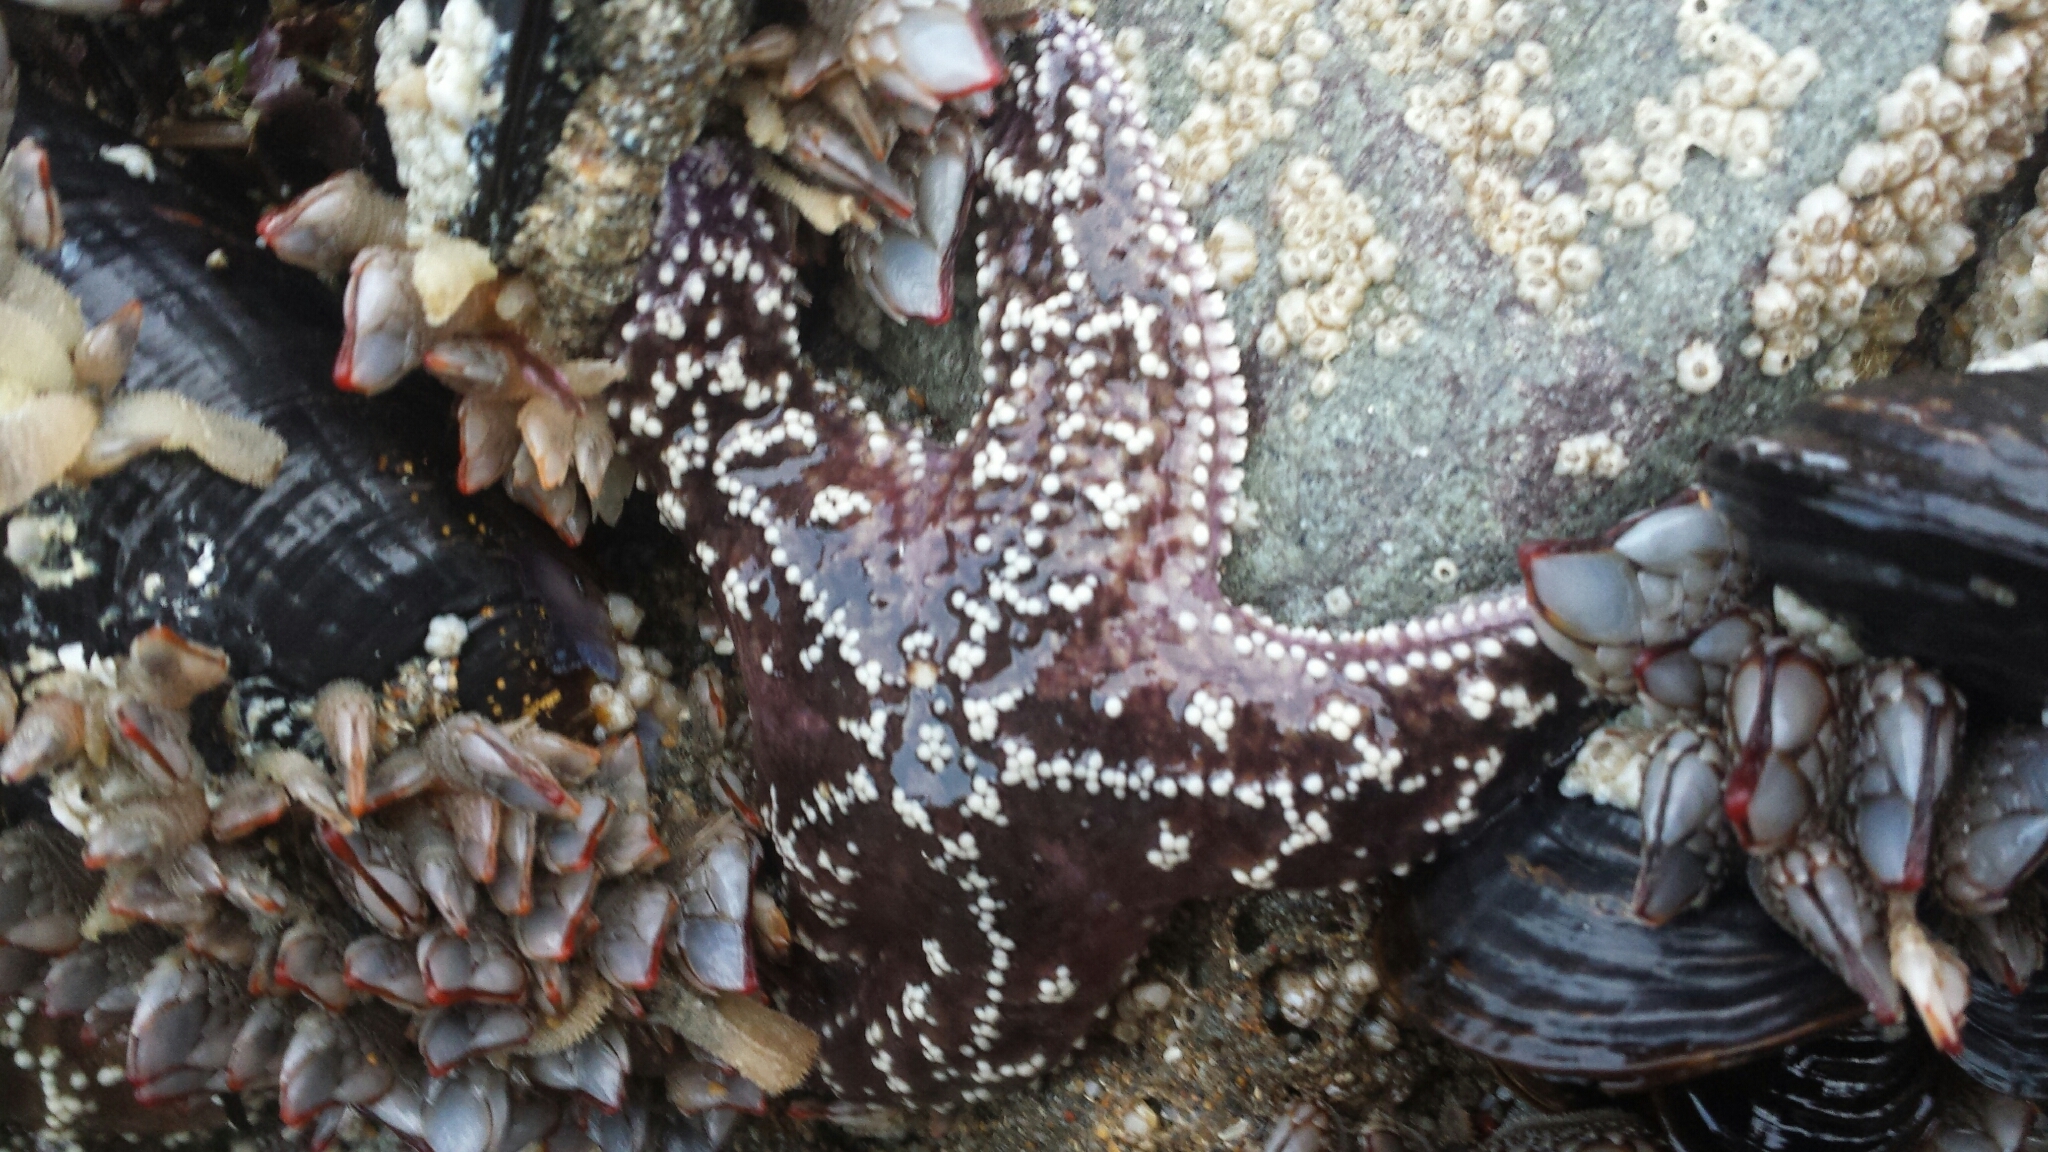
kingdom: Animalia
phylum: Echinodermata
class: Asteroidea
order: Forcipulatida
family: Asteriidae
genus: Pisaster
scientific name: Pisaster ochraceus
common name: Ochre stars
